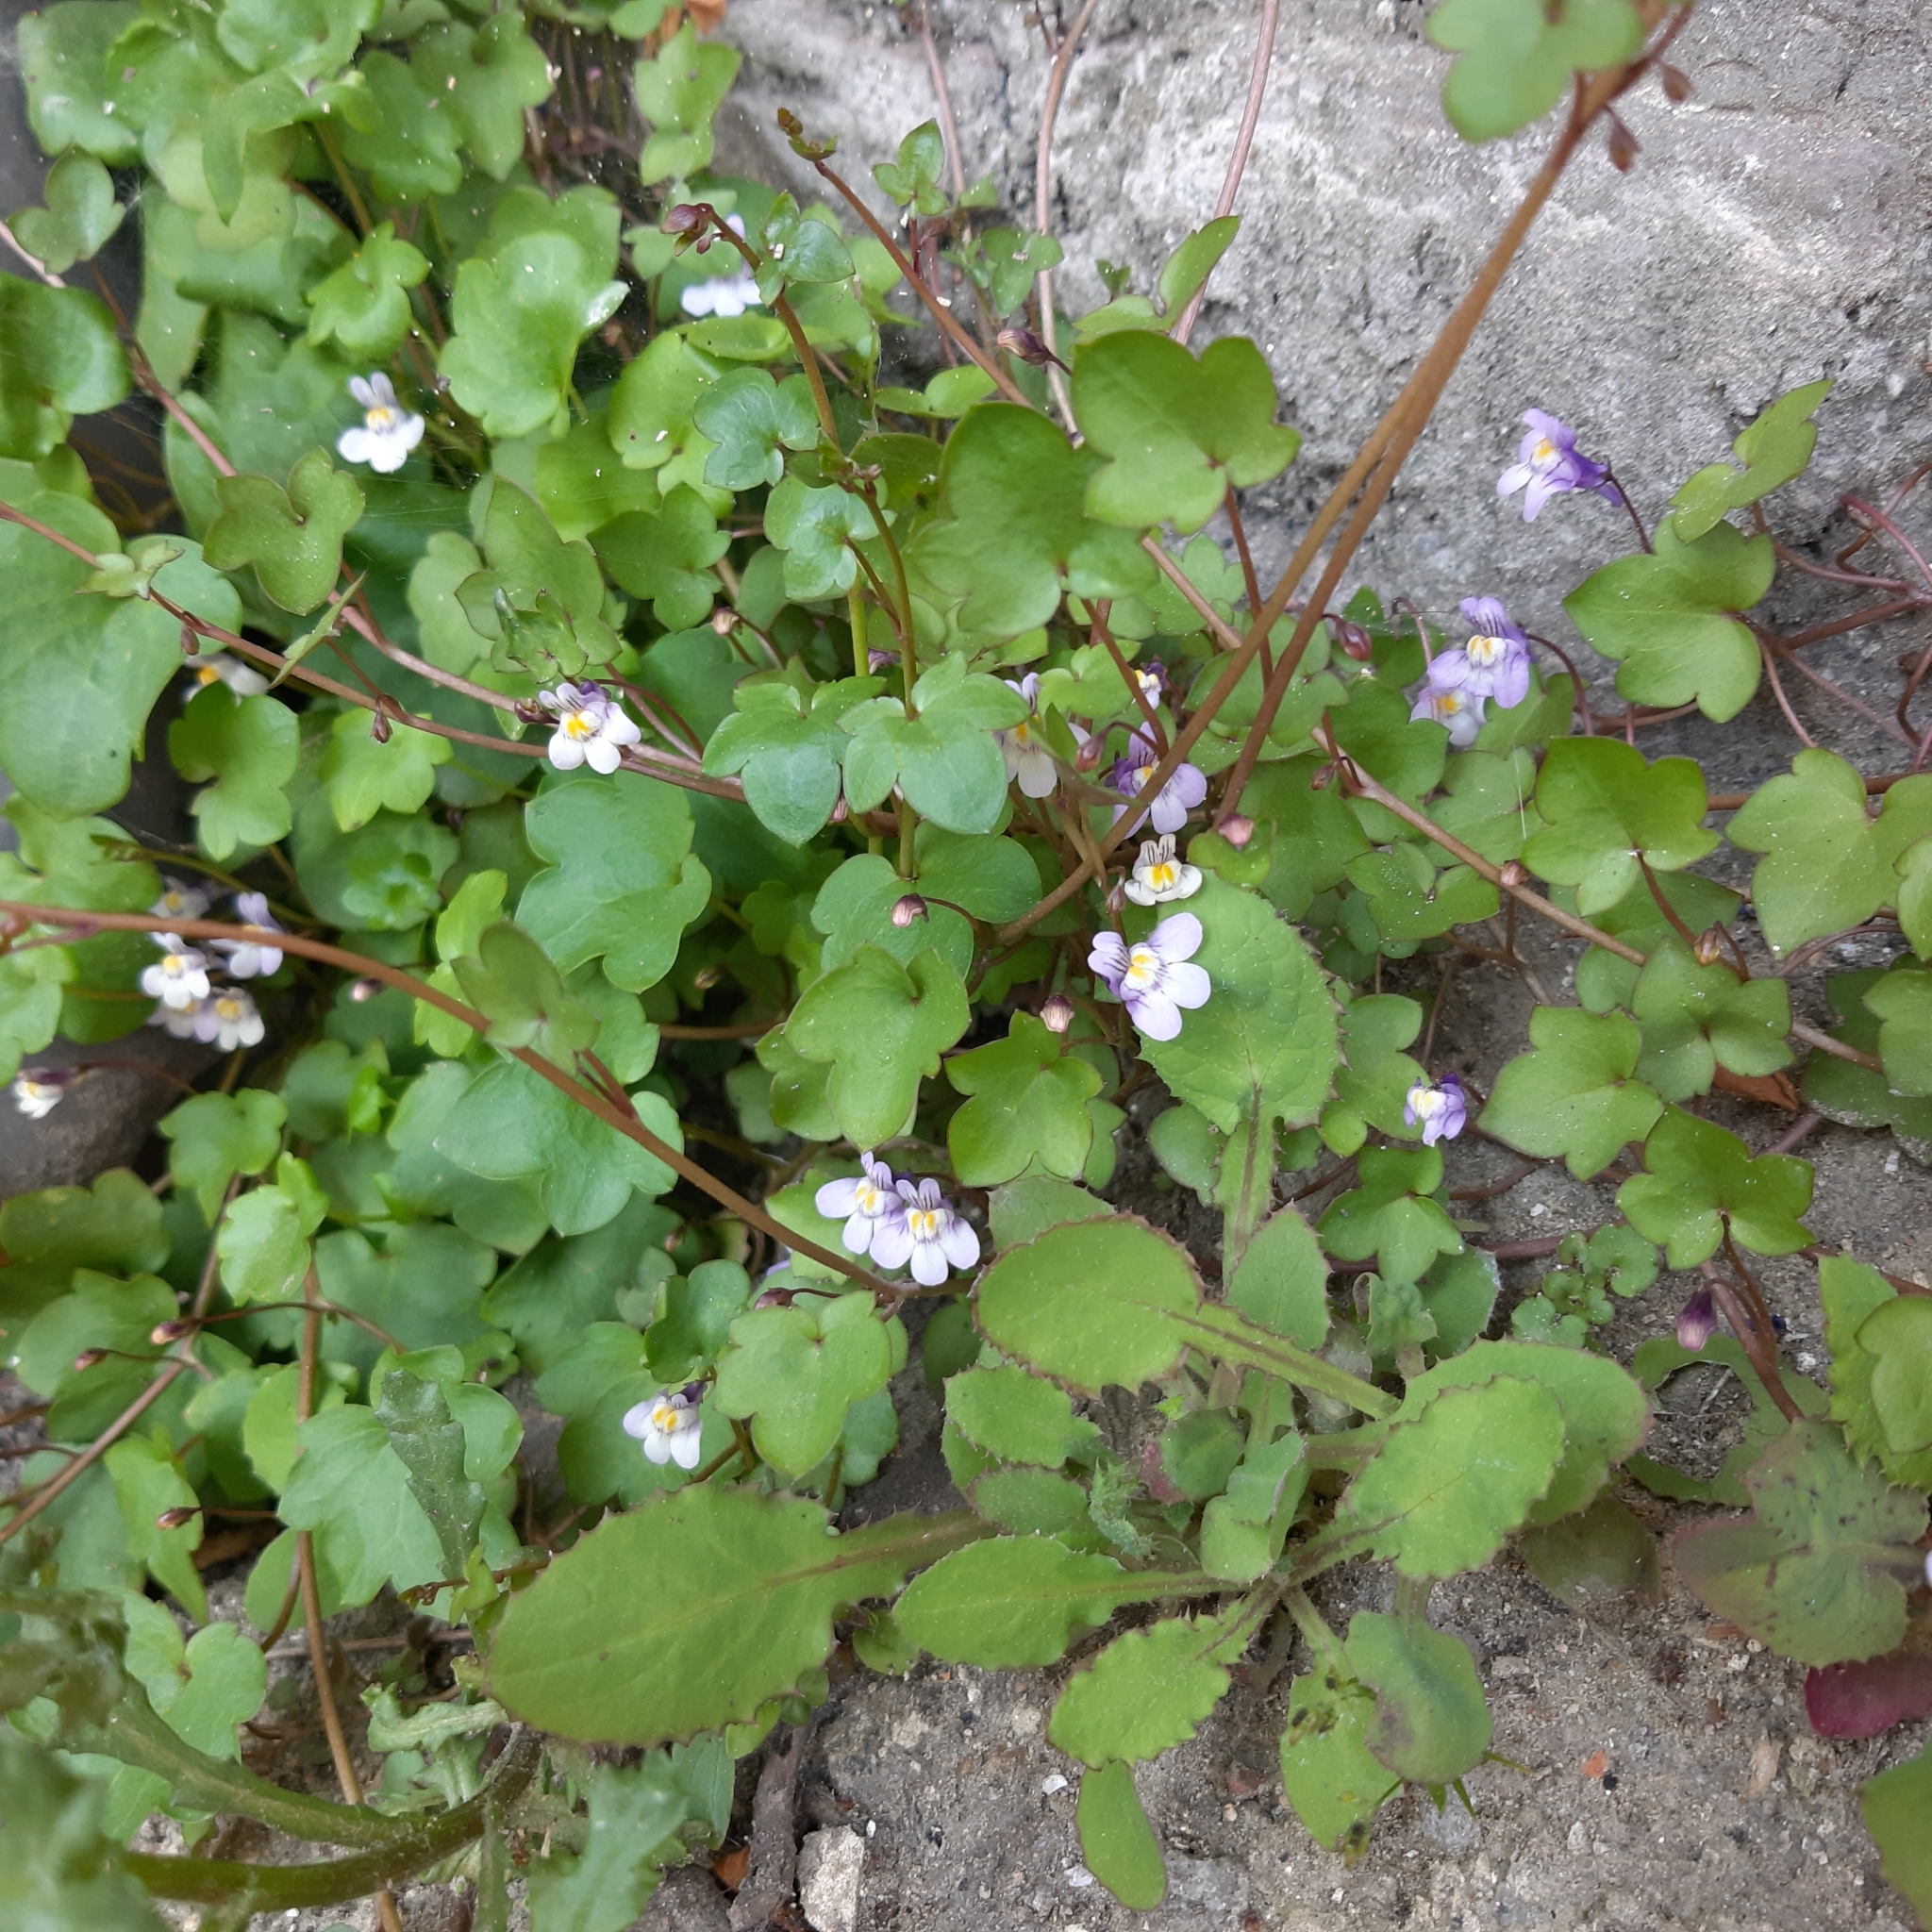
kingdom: Plantae
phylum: Tracheophyta
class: Magnoliopsida
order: Lamiales
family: Plantaginaceae
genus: Cymbalaria
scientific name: Cymbalaria muralis
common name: Ivy-leaved toadflax
